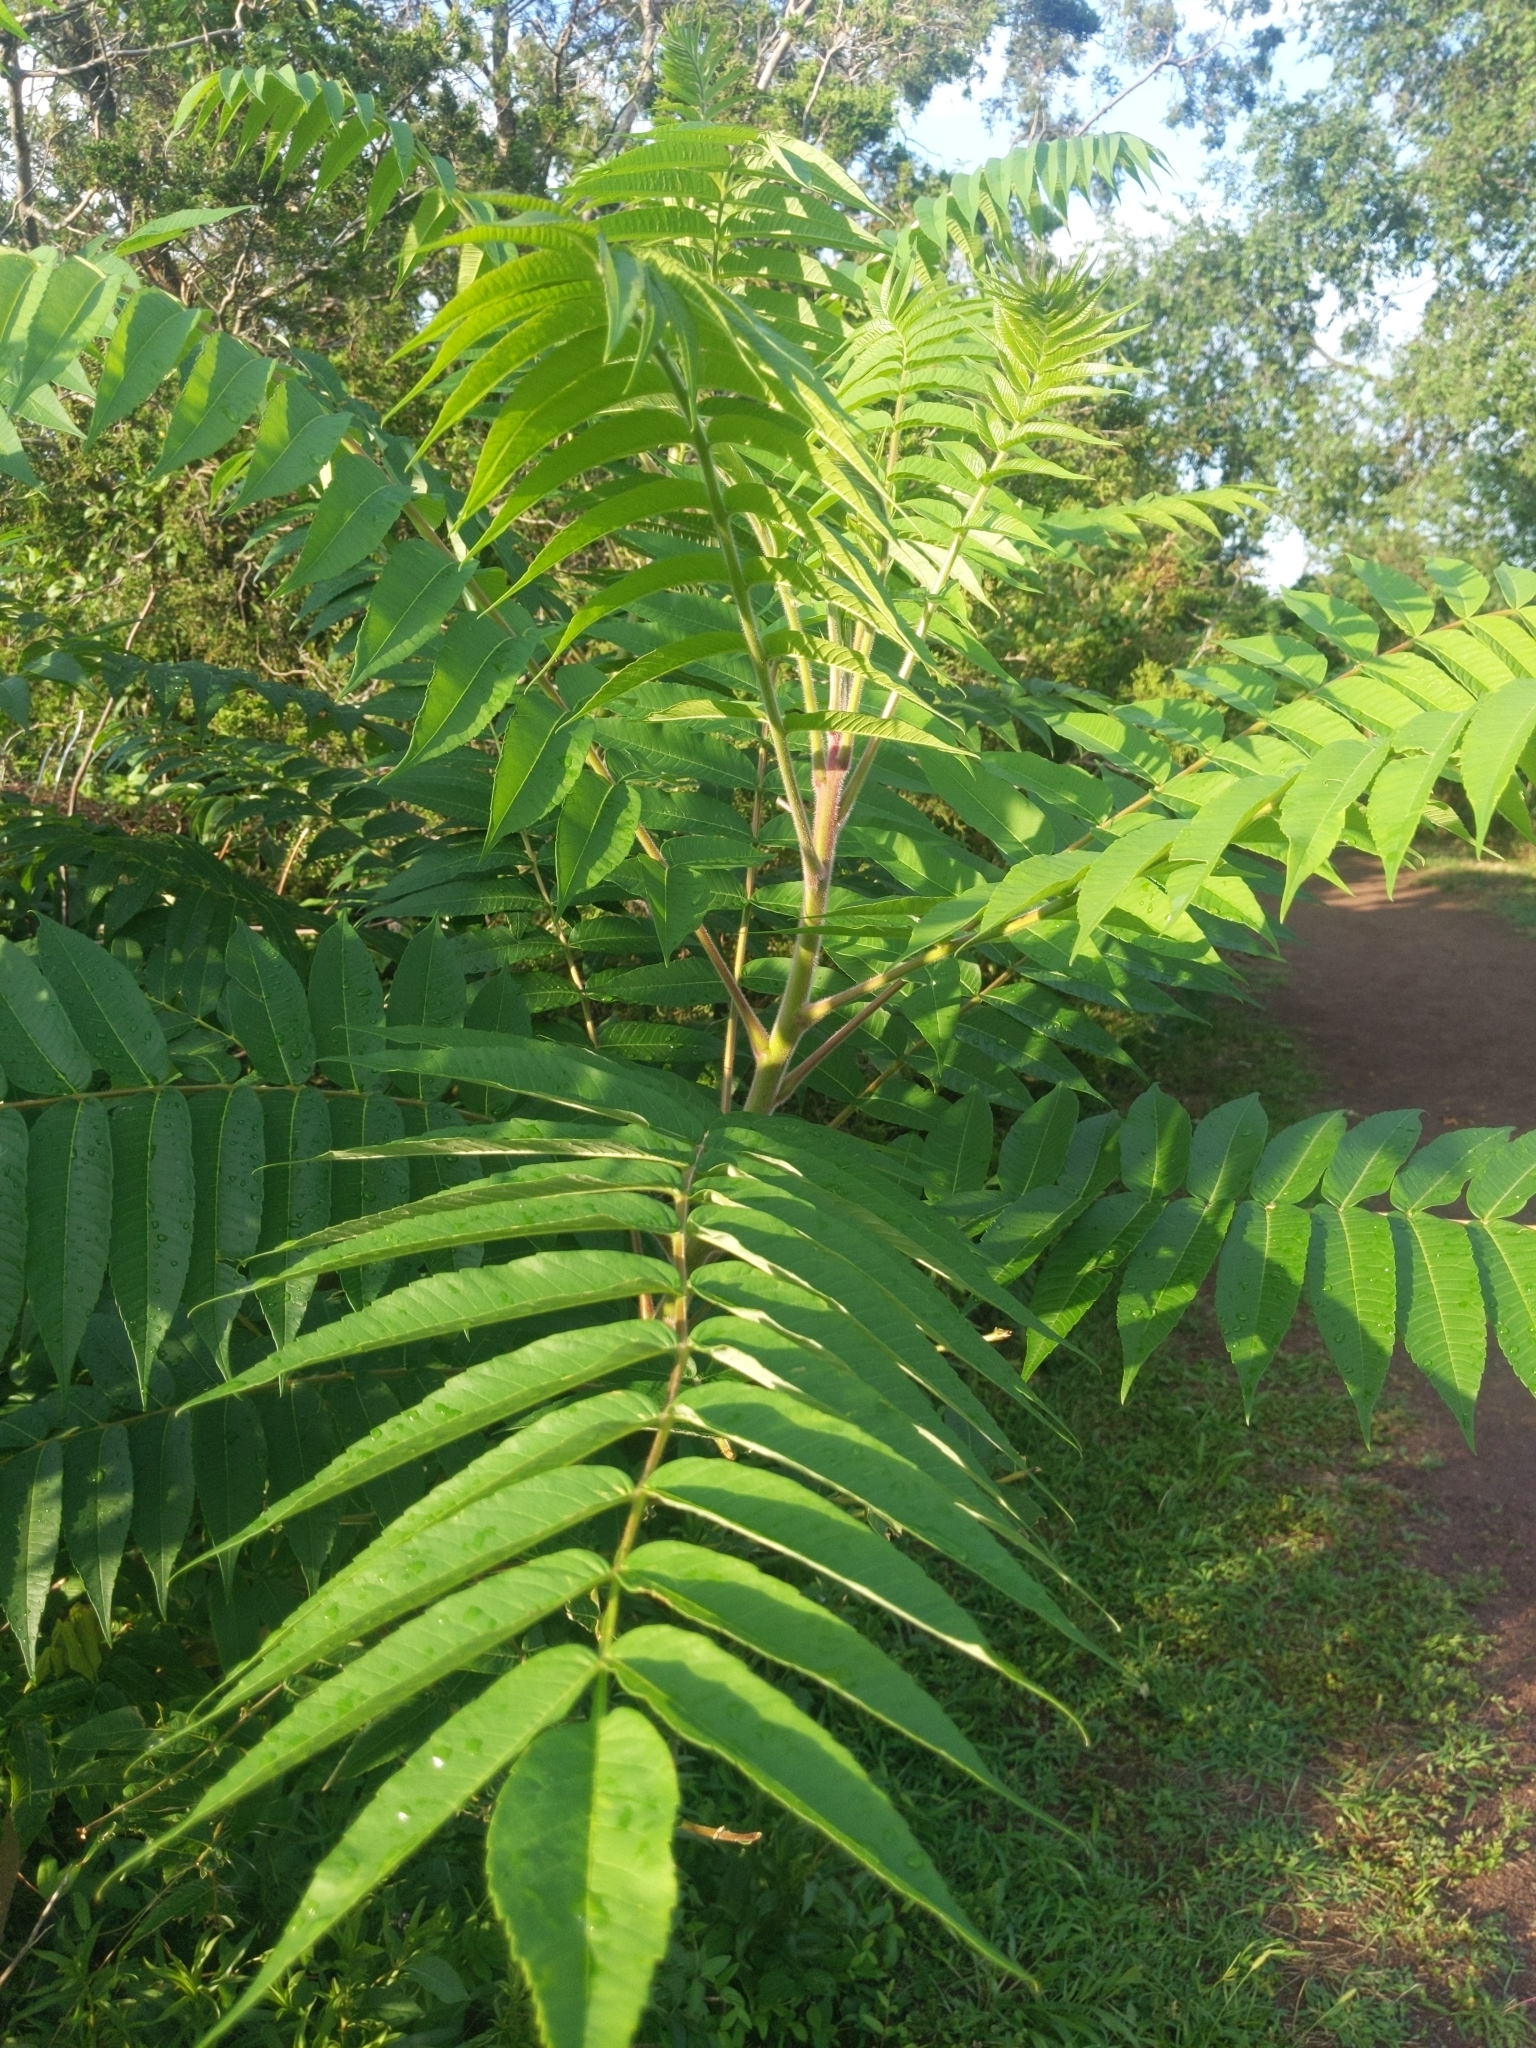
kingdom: Plantae
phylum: Tracheophyta
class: Magnoliopsida
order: Sapindales
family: Anacardiaceae
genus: Rhus
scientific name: Rhus typhina
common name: Staghorn sumac
